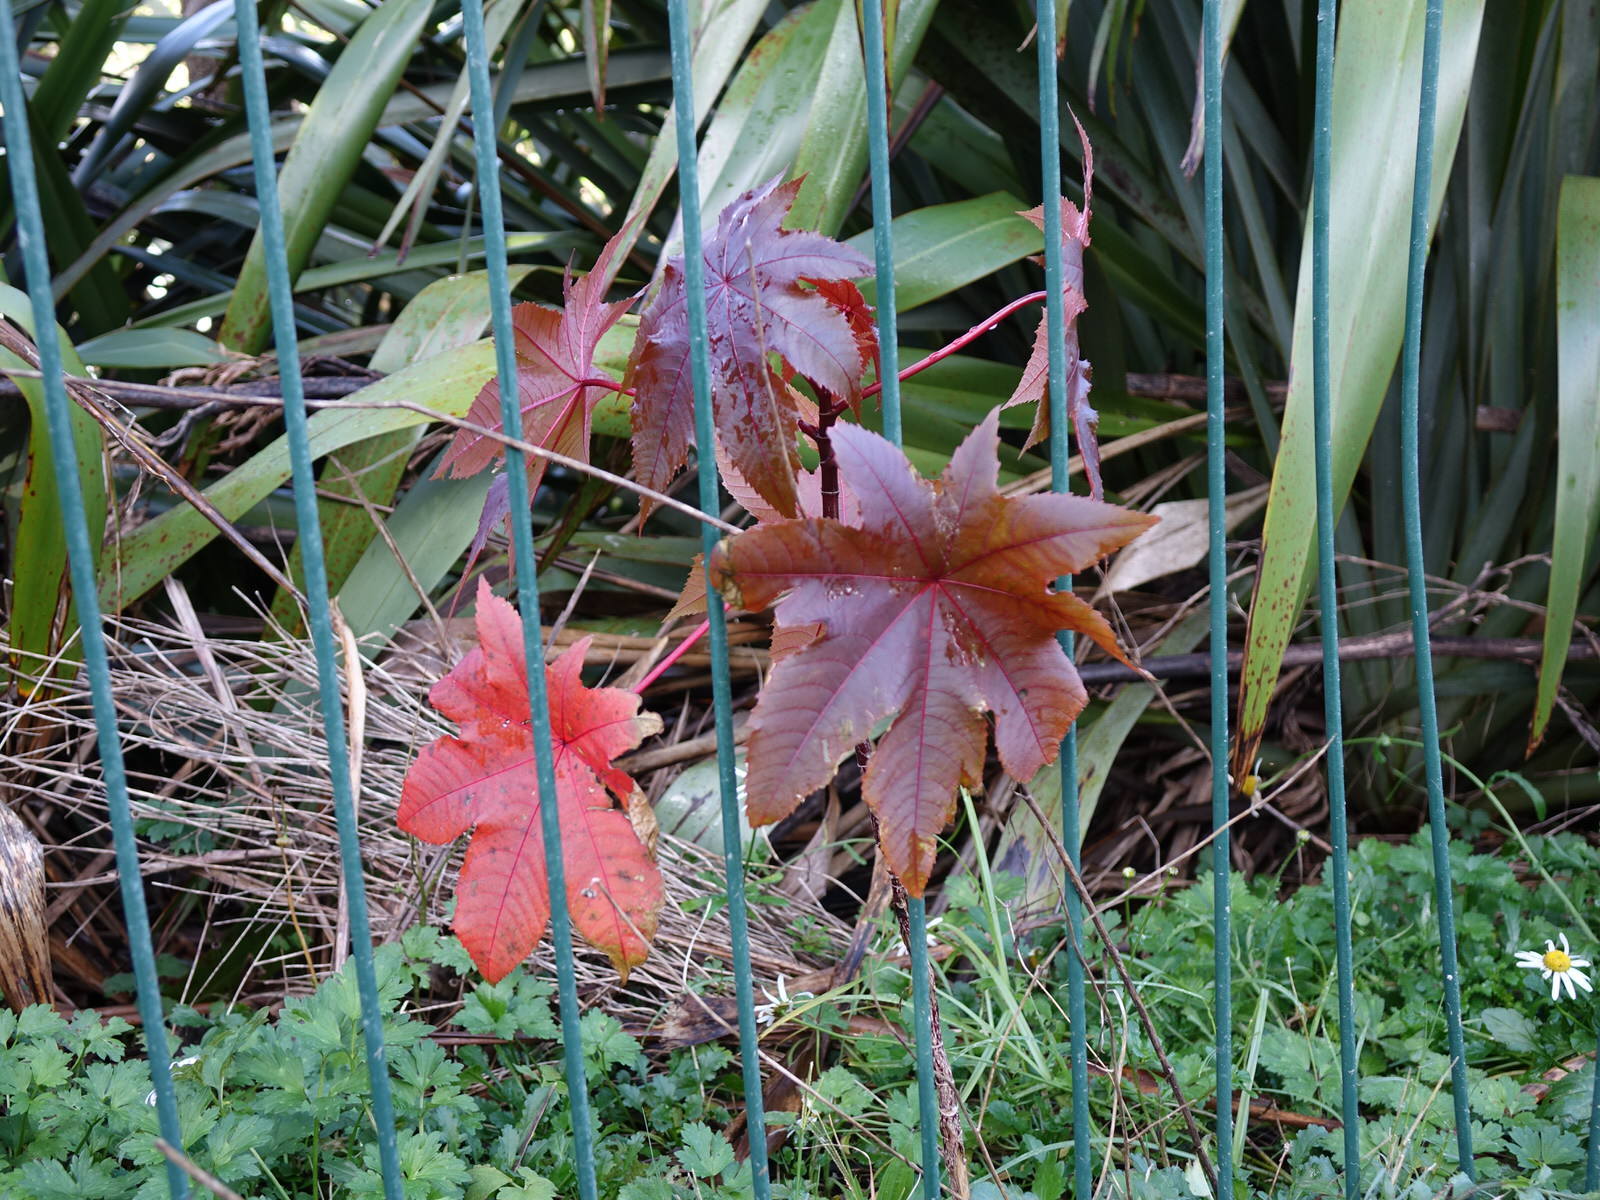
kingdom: Plantae
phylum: Tracheophyta
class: Magnoliopsida
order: Malpighiales
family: Euphorbiaceae
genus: Ricinus
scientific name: Ricinus communis
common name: Castor-oil-plant
